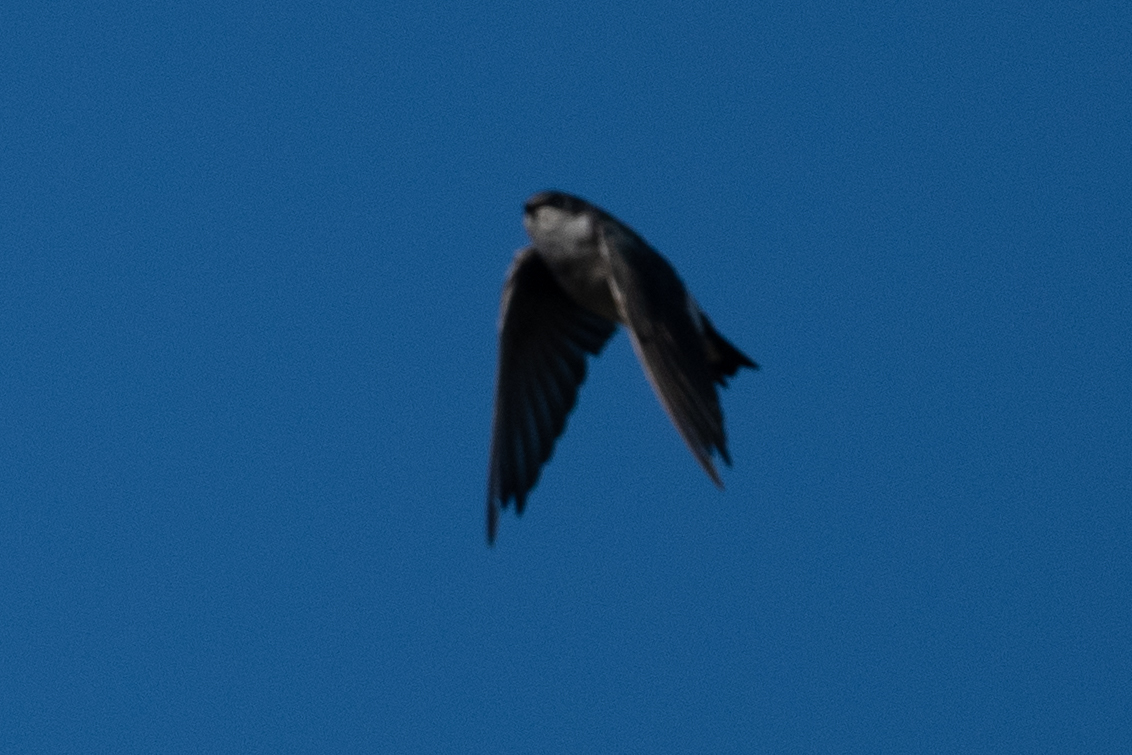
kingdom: Animalia
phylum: Chordata
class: Aves
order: Passeriformes
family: Hirundinidae
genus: Tachycineta
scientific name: Tachycineta bicolor
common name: Tree swallow
